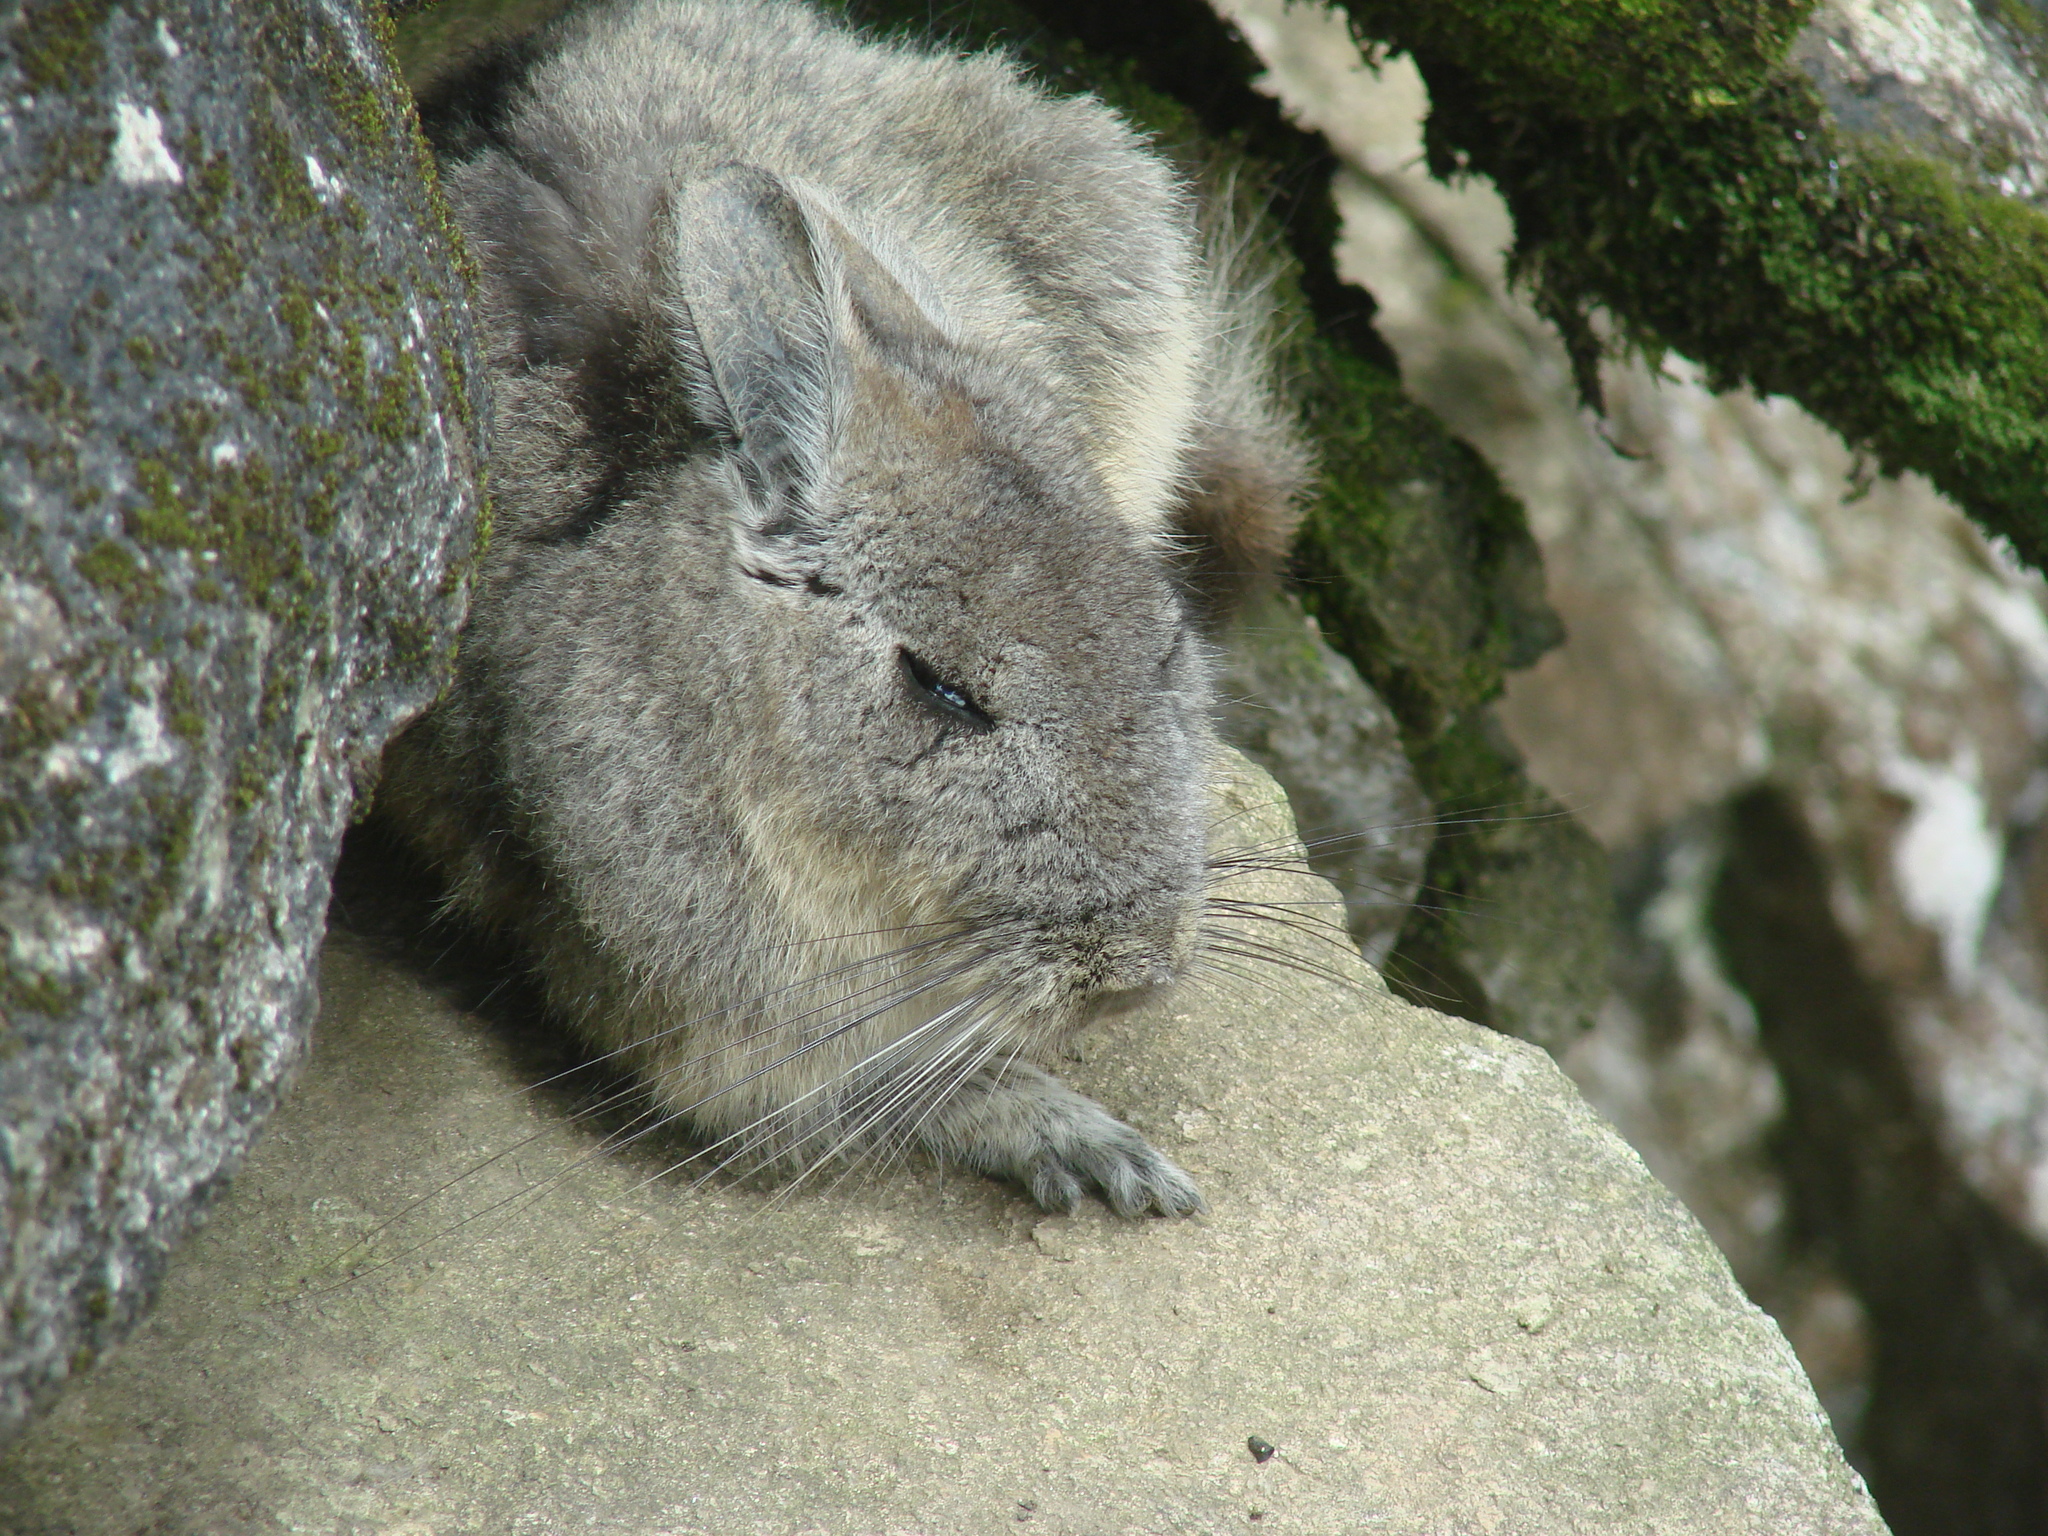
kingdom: Animalia
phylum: Chordata
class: Mammalia
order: Rodentia
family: Chinchillidae
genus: Lagidium
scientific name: Lagidium viscacia
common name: Southern viscacha
